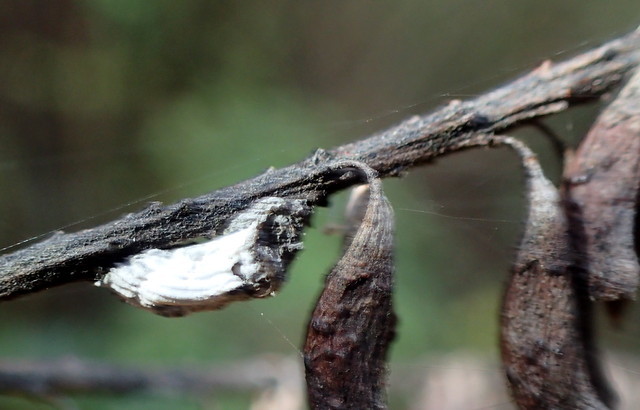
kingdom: Animalia
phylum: Arthropoda
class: Insecta
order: Hemiptera
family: Margarodidae
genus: Icerya
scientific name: Icerya purchasi
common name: Cottony cushion scale
